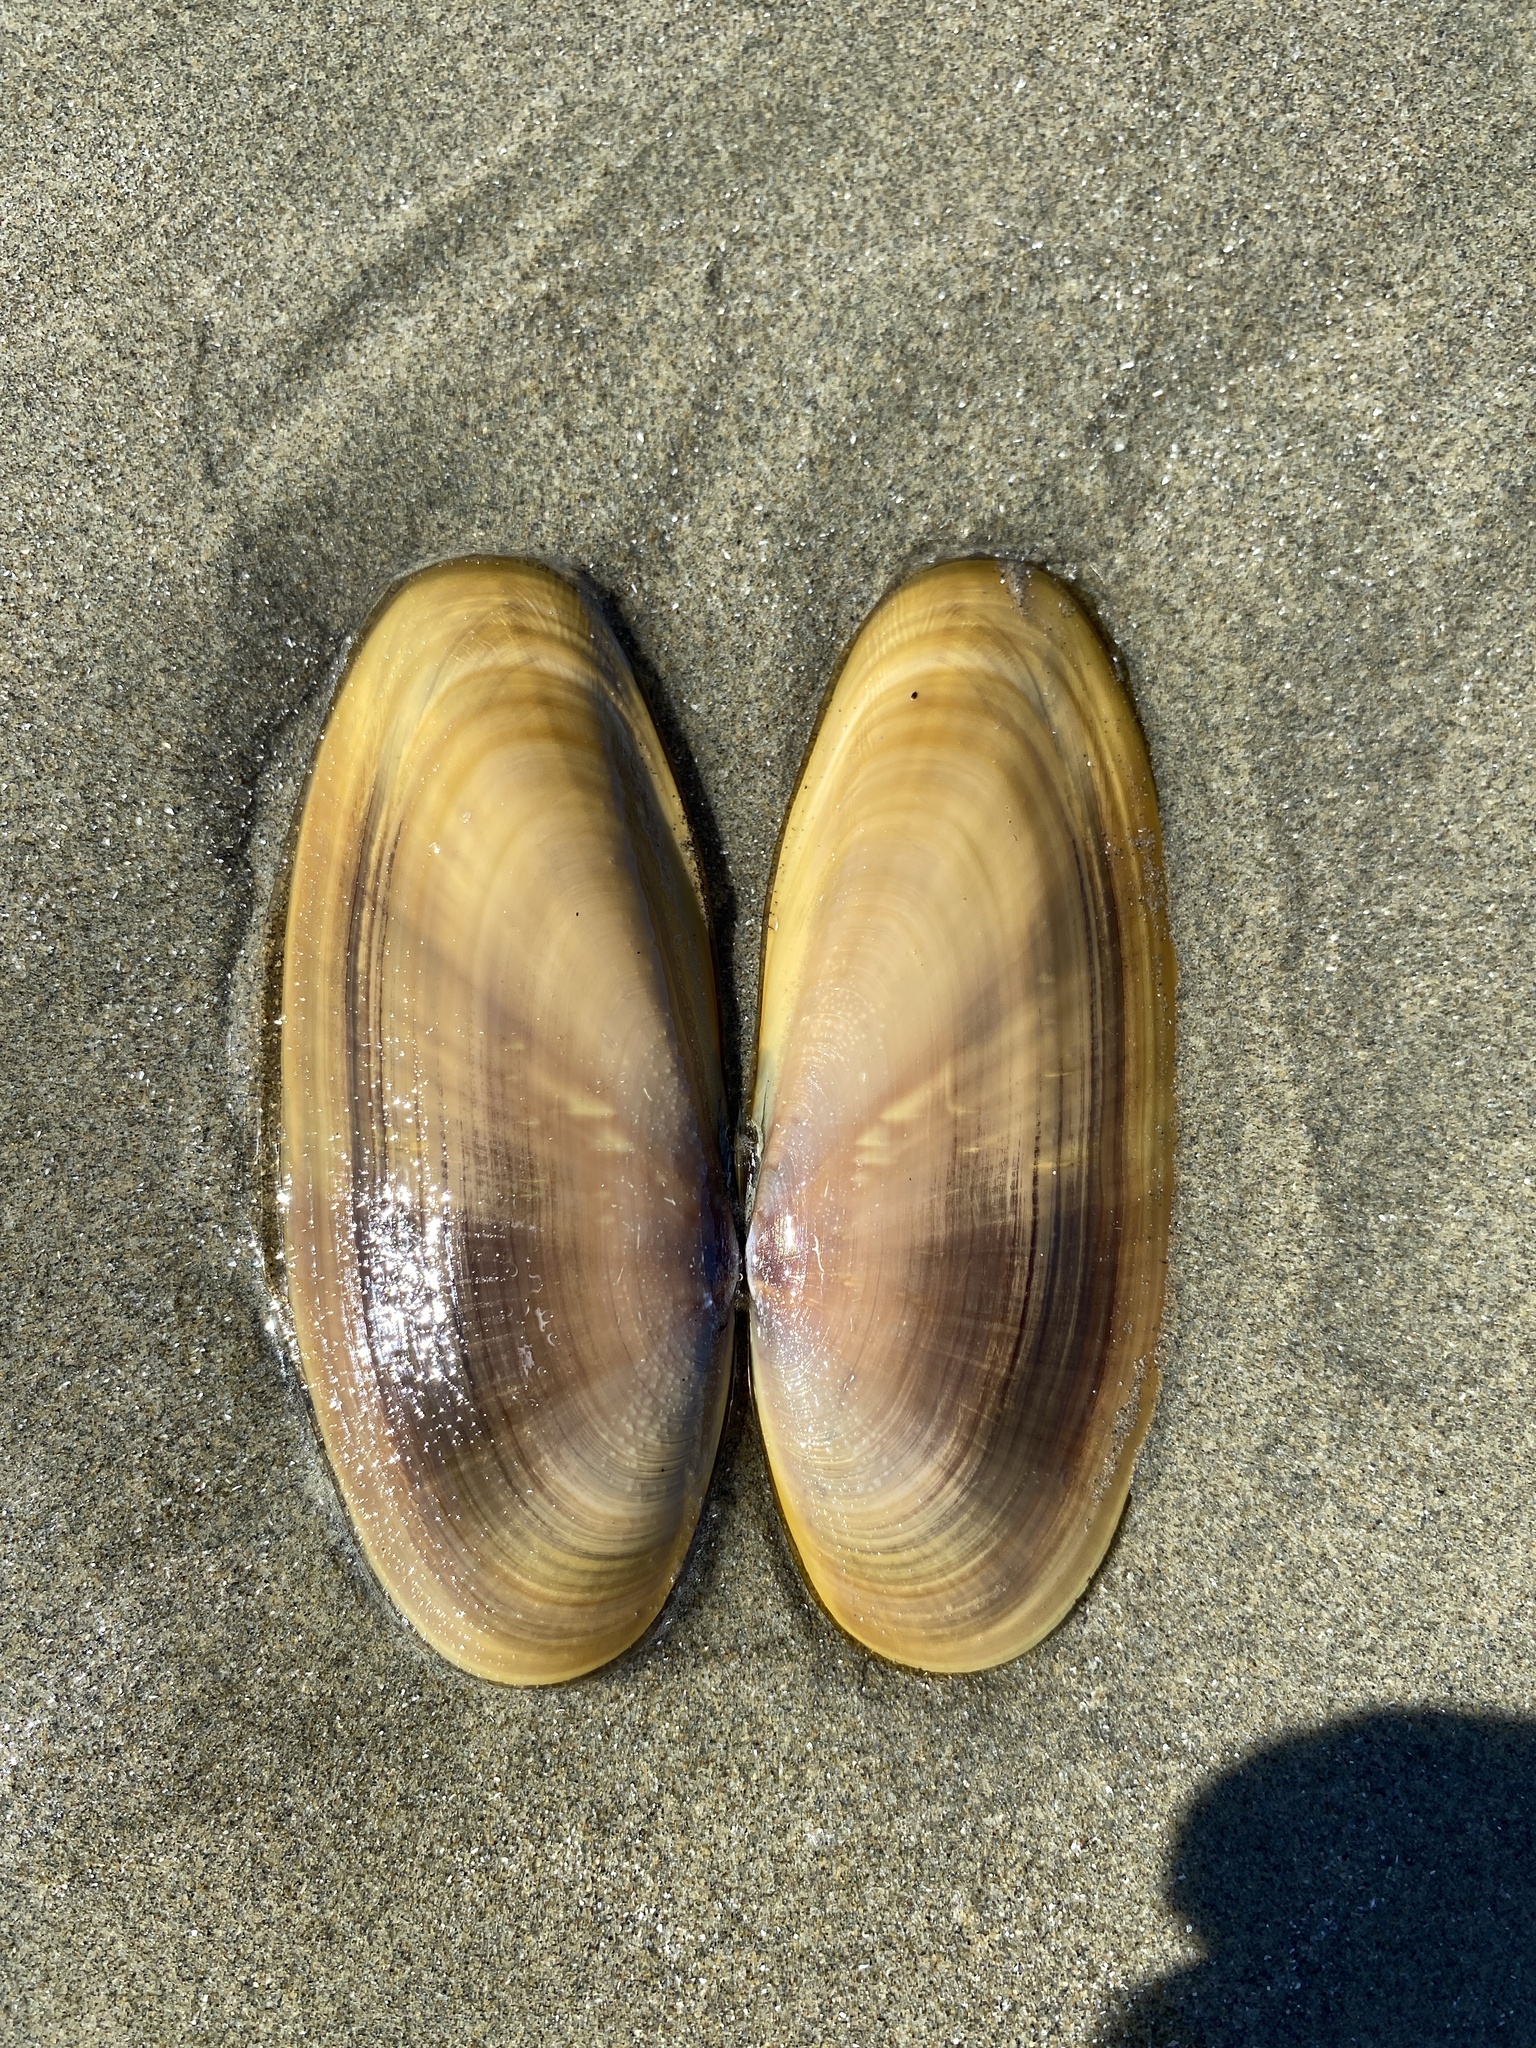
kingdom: Animalia
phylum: Mollusca
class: Bivalvia
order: Adapedonta
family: Pharidae
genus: Siliqua
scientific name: Siliqua patula
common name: Pacific razor clam
